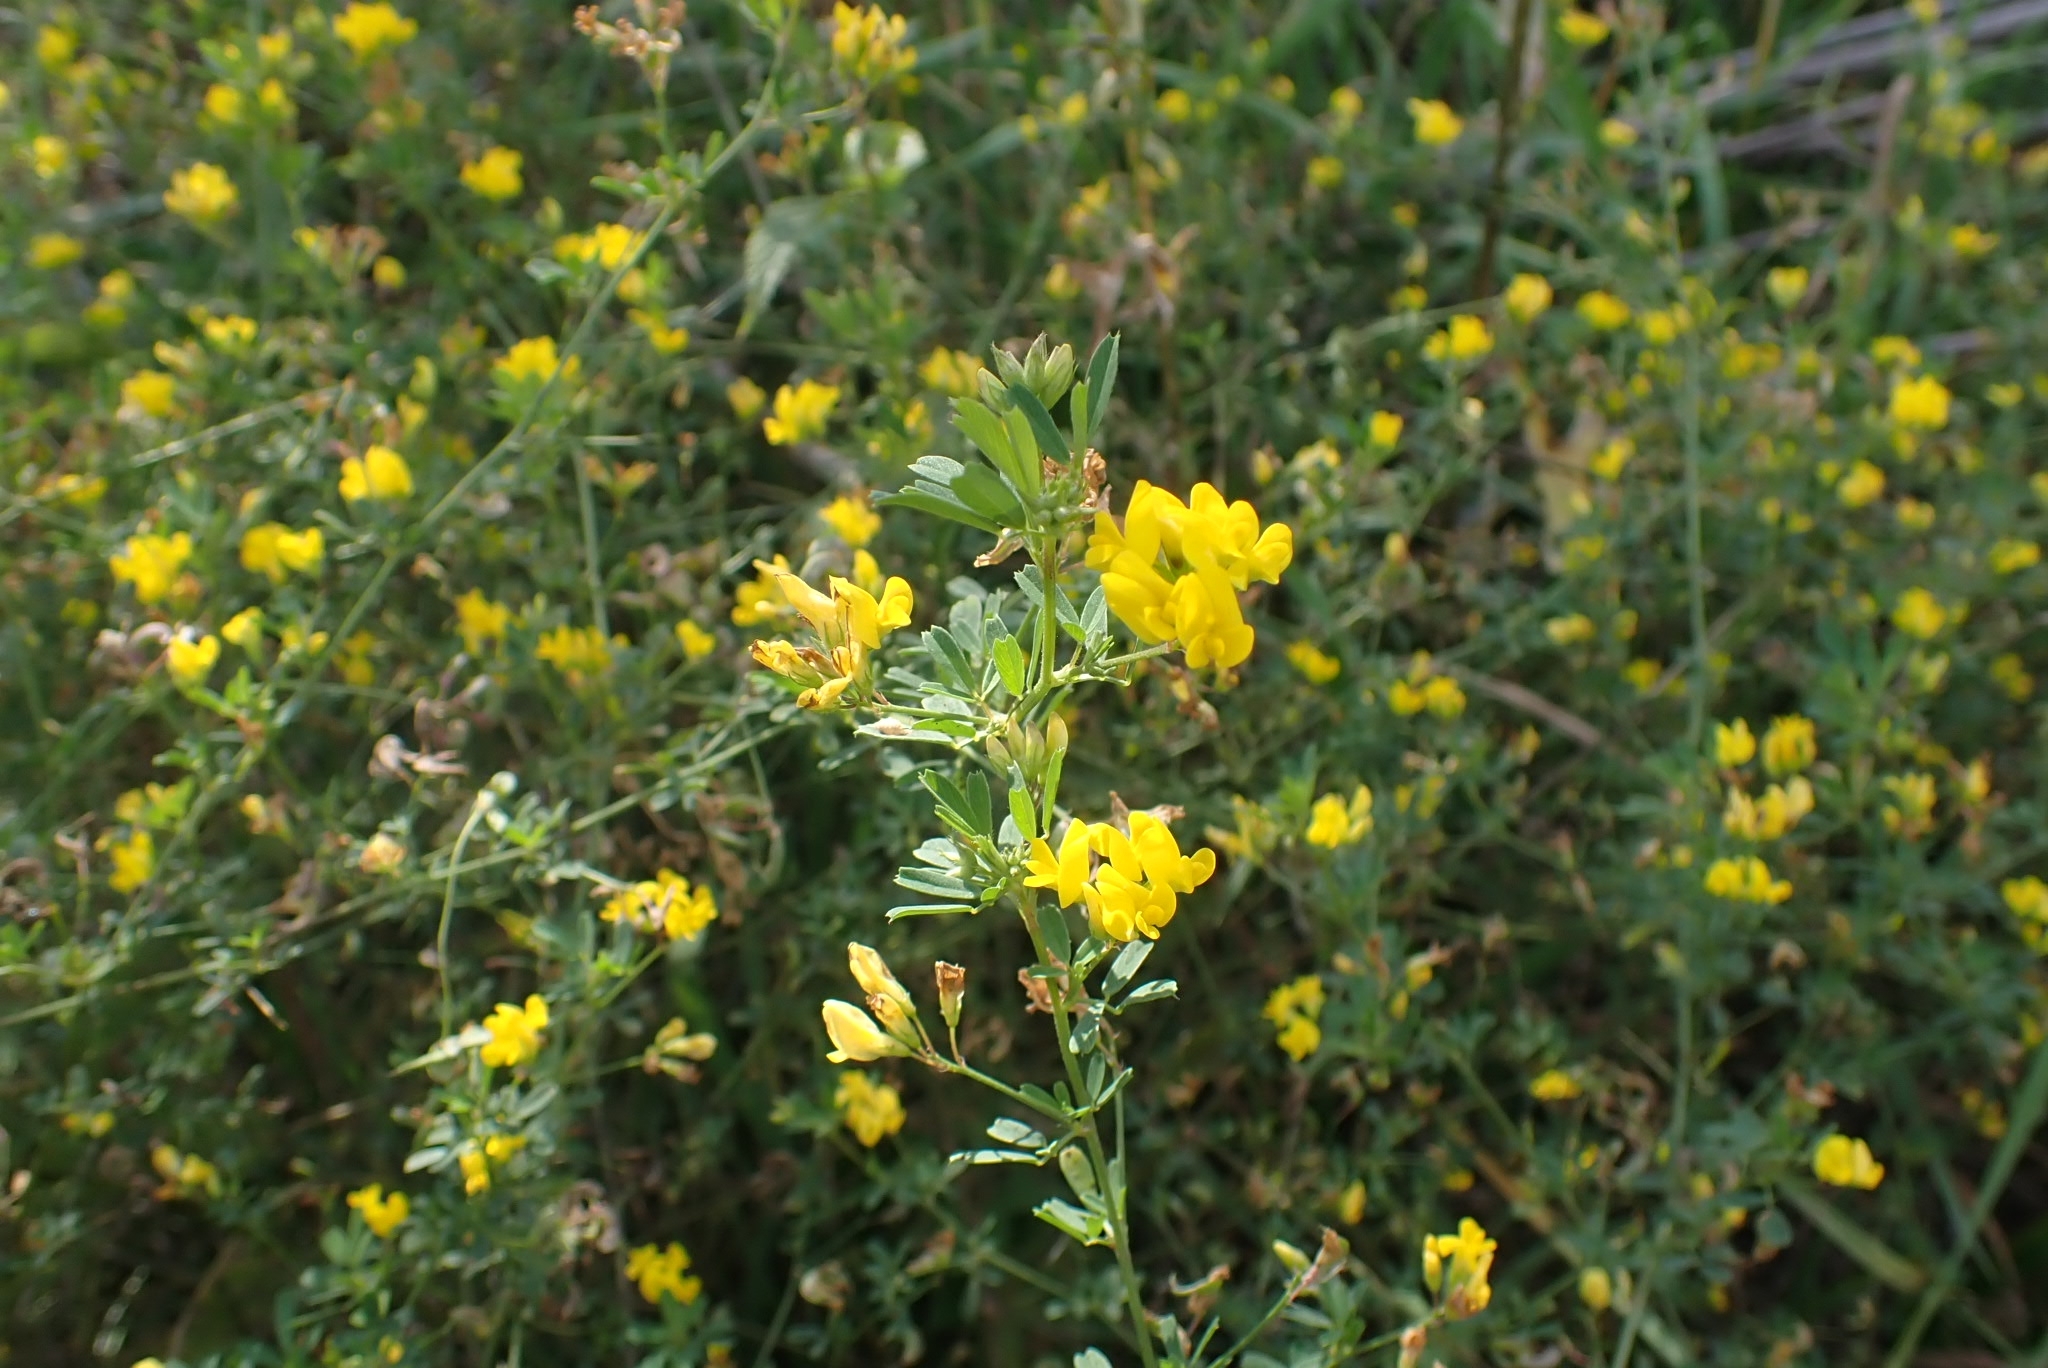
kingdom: Plantae
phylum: Tracheophyta
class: Magnoliopsida
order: Fabales
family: Fabaceae
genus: Medicago
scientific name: Medicago falcata
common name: Sickle medick
